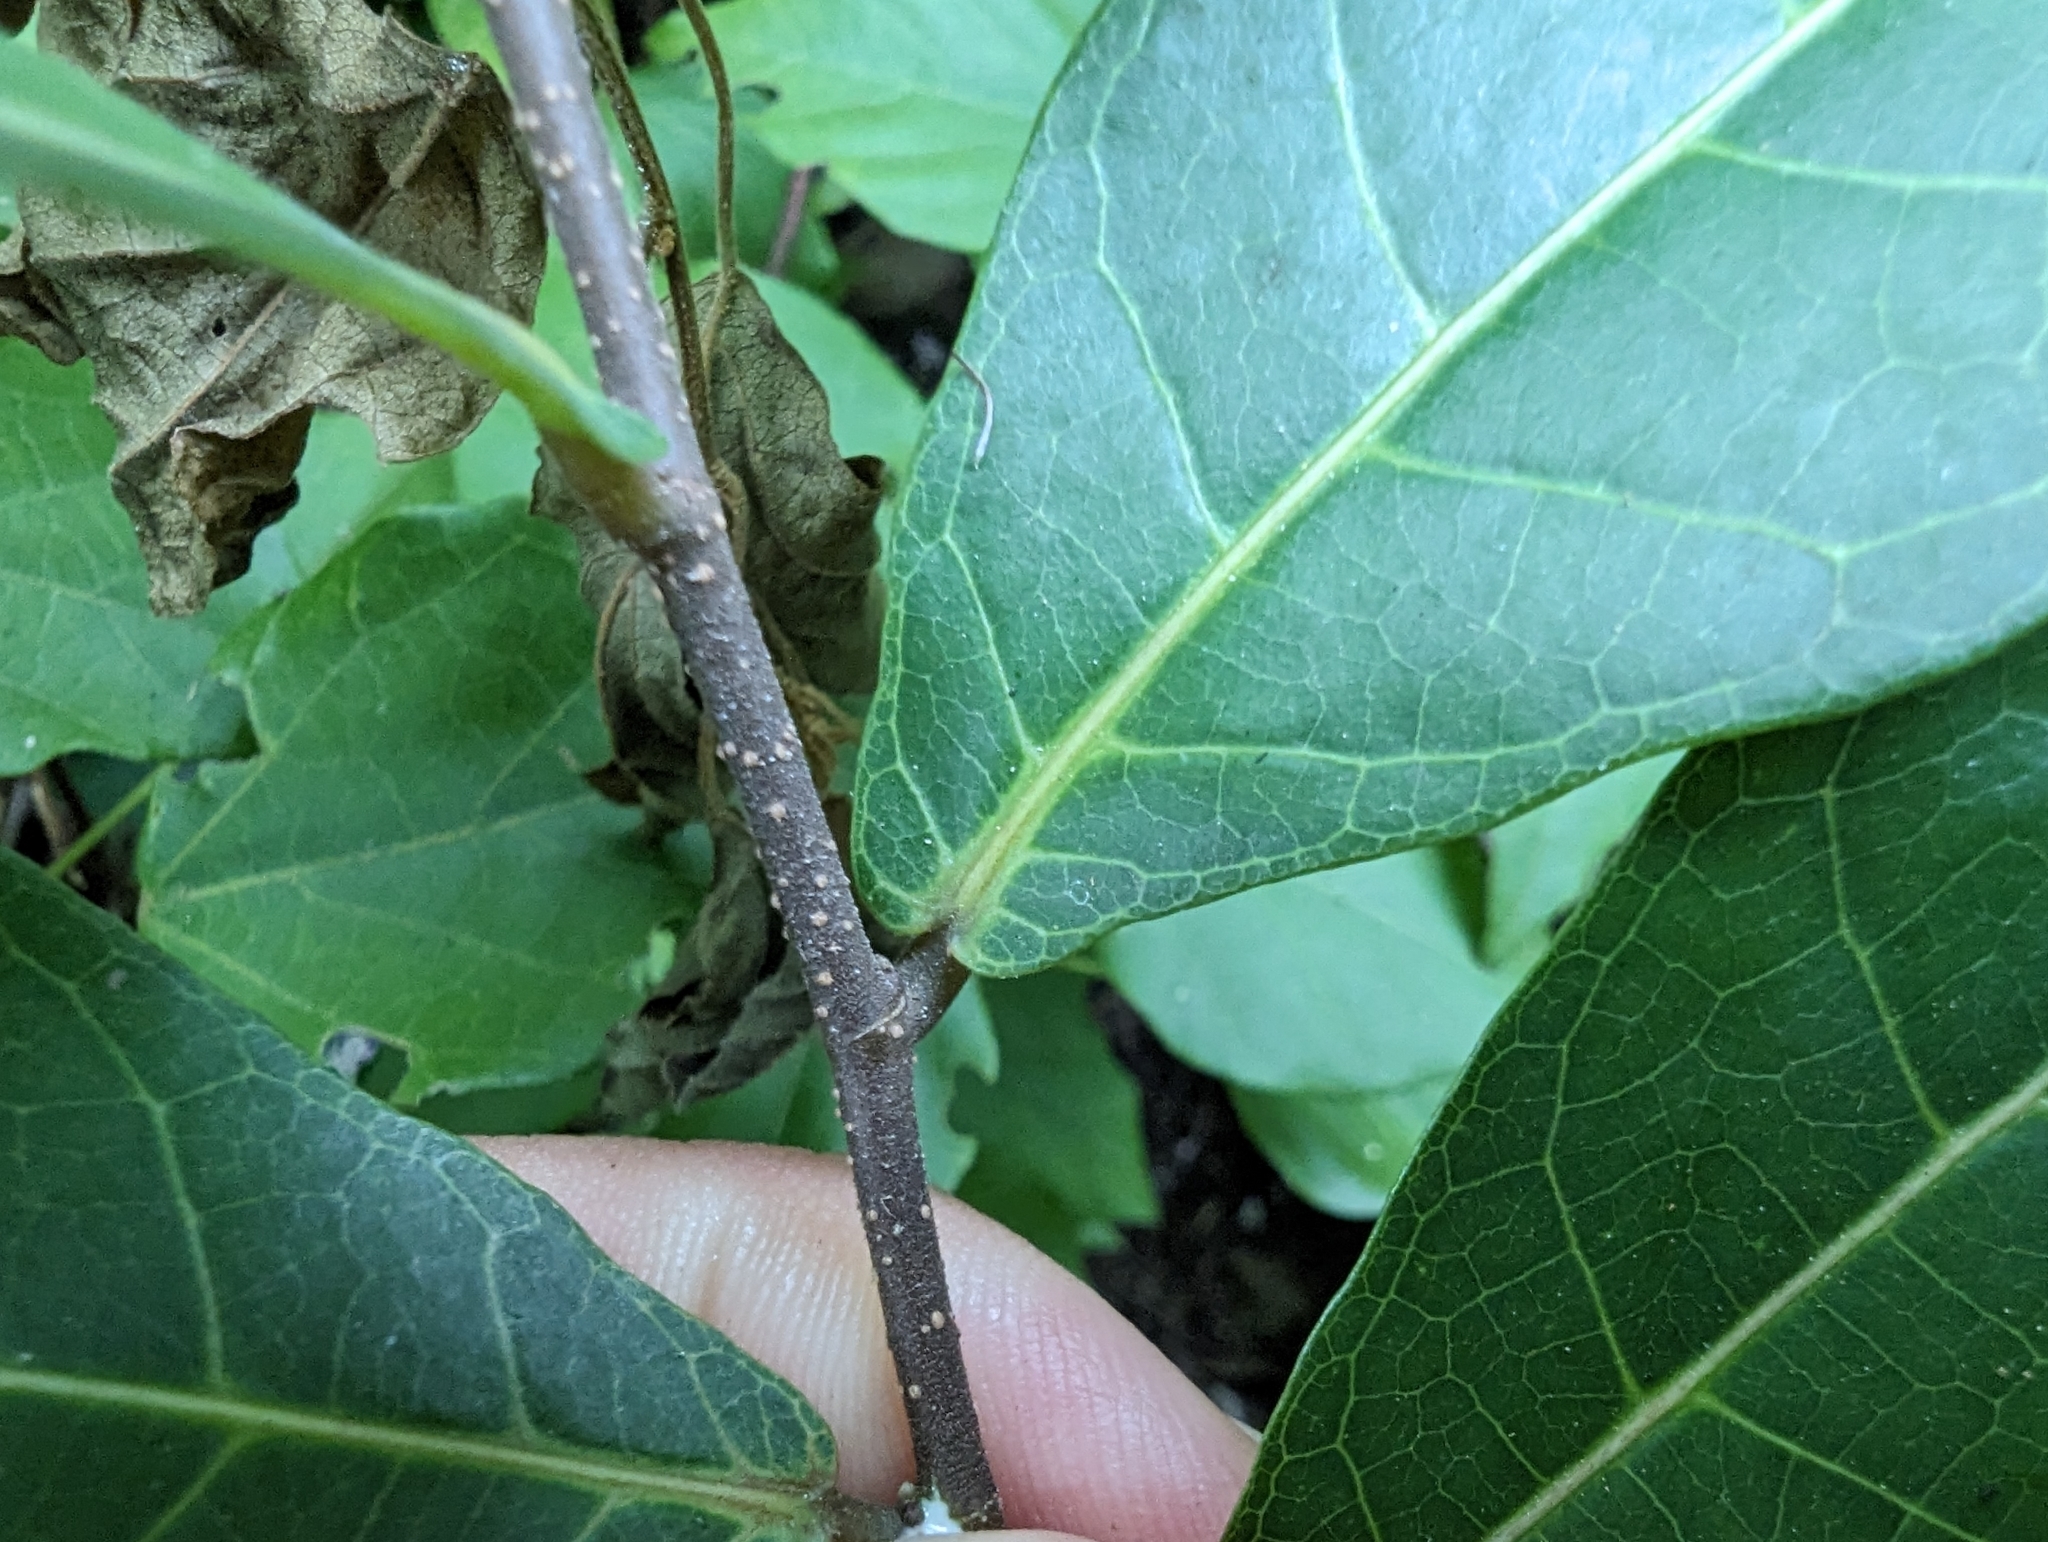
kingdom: Plantae
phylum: Tracheophyta
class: Magnoliopsida
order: Rosales
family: Moraceae
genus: Malaisia
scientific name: Malaisia scandens
